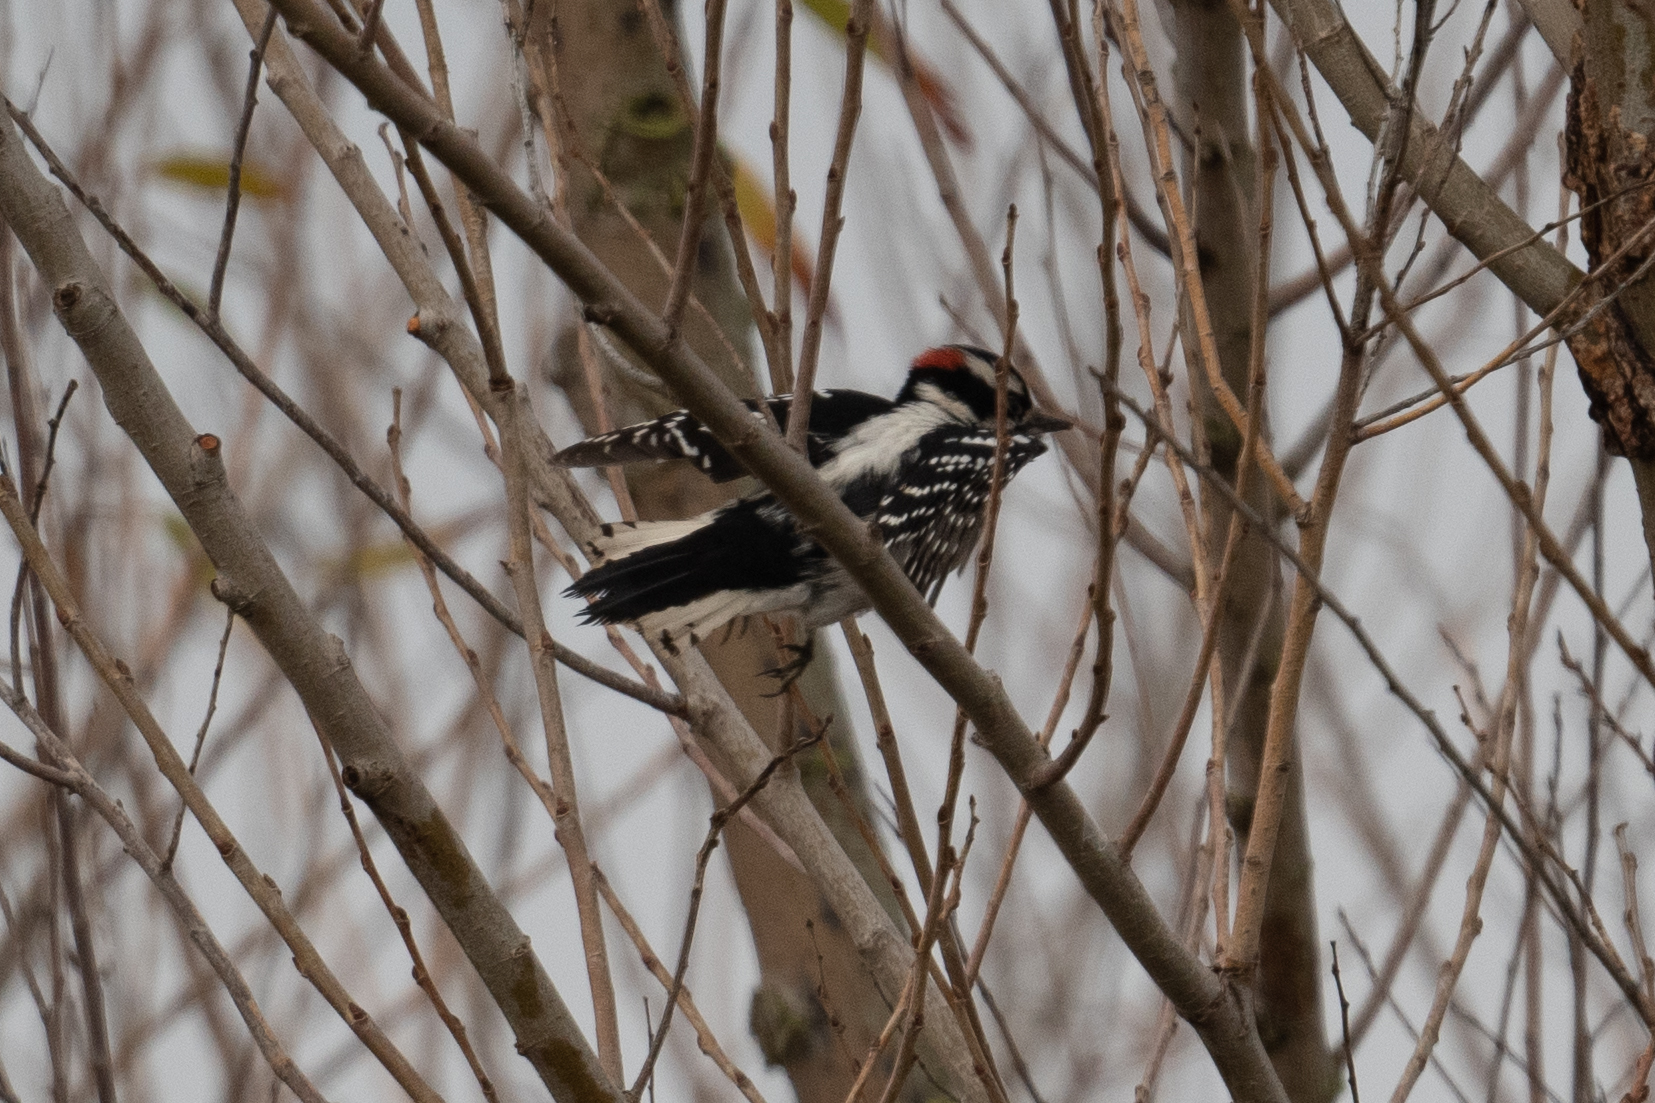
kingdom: Animalia
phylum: Chordata
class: Aves
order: Piciformes
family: Picidae
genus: Dryobates
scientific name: Dryobates pubescens
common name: Downy woodpecker
